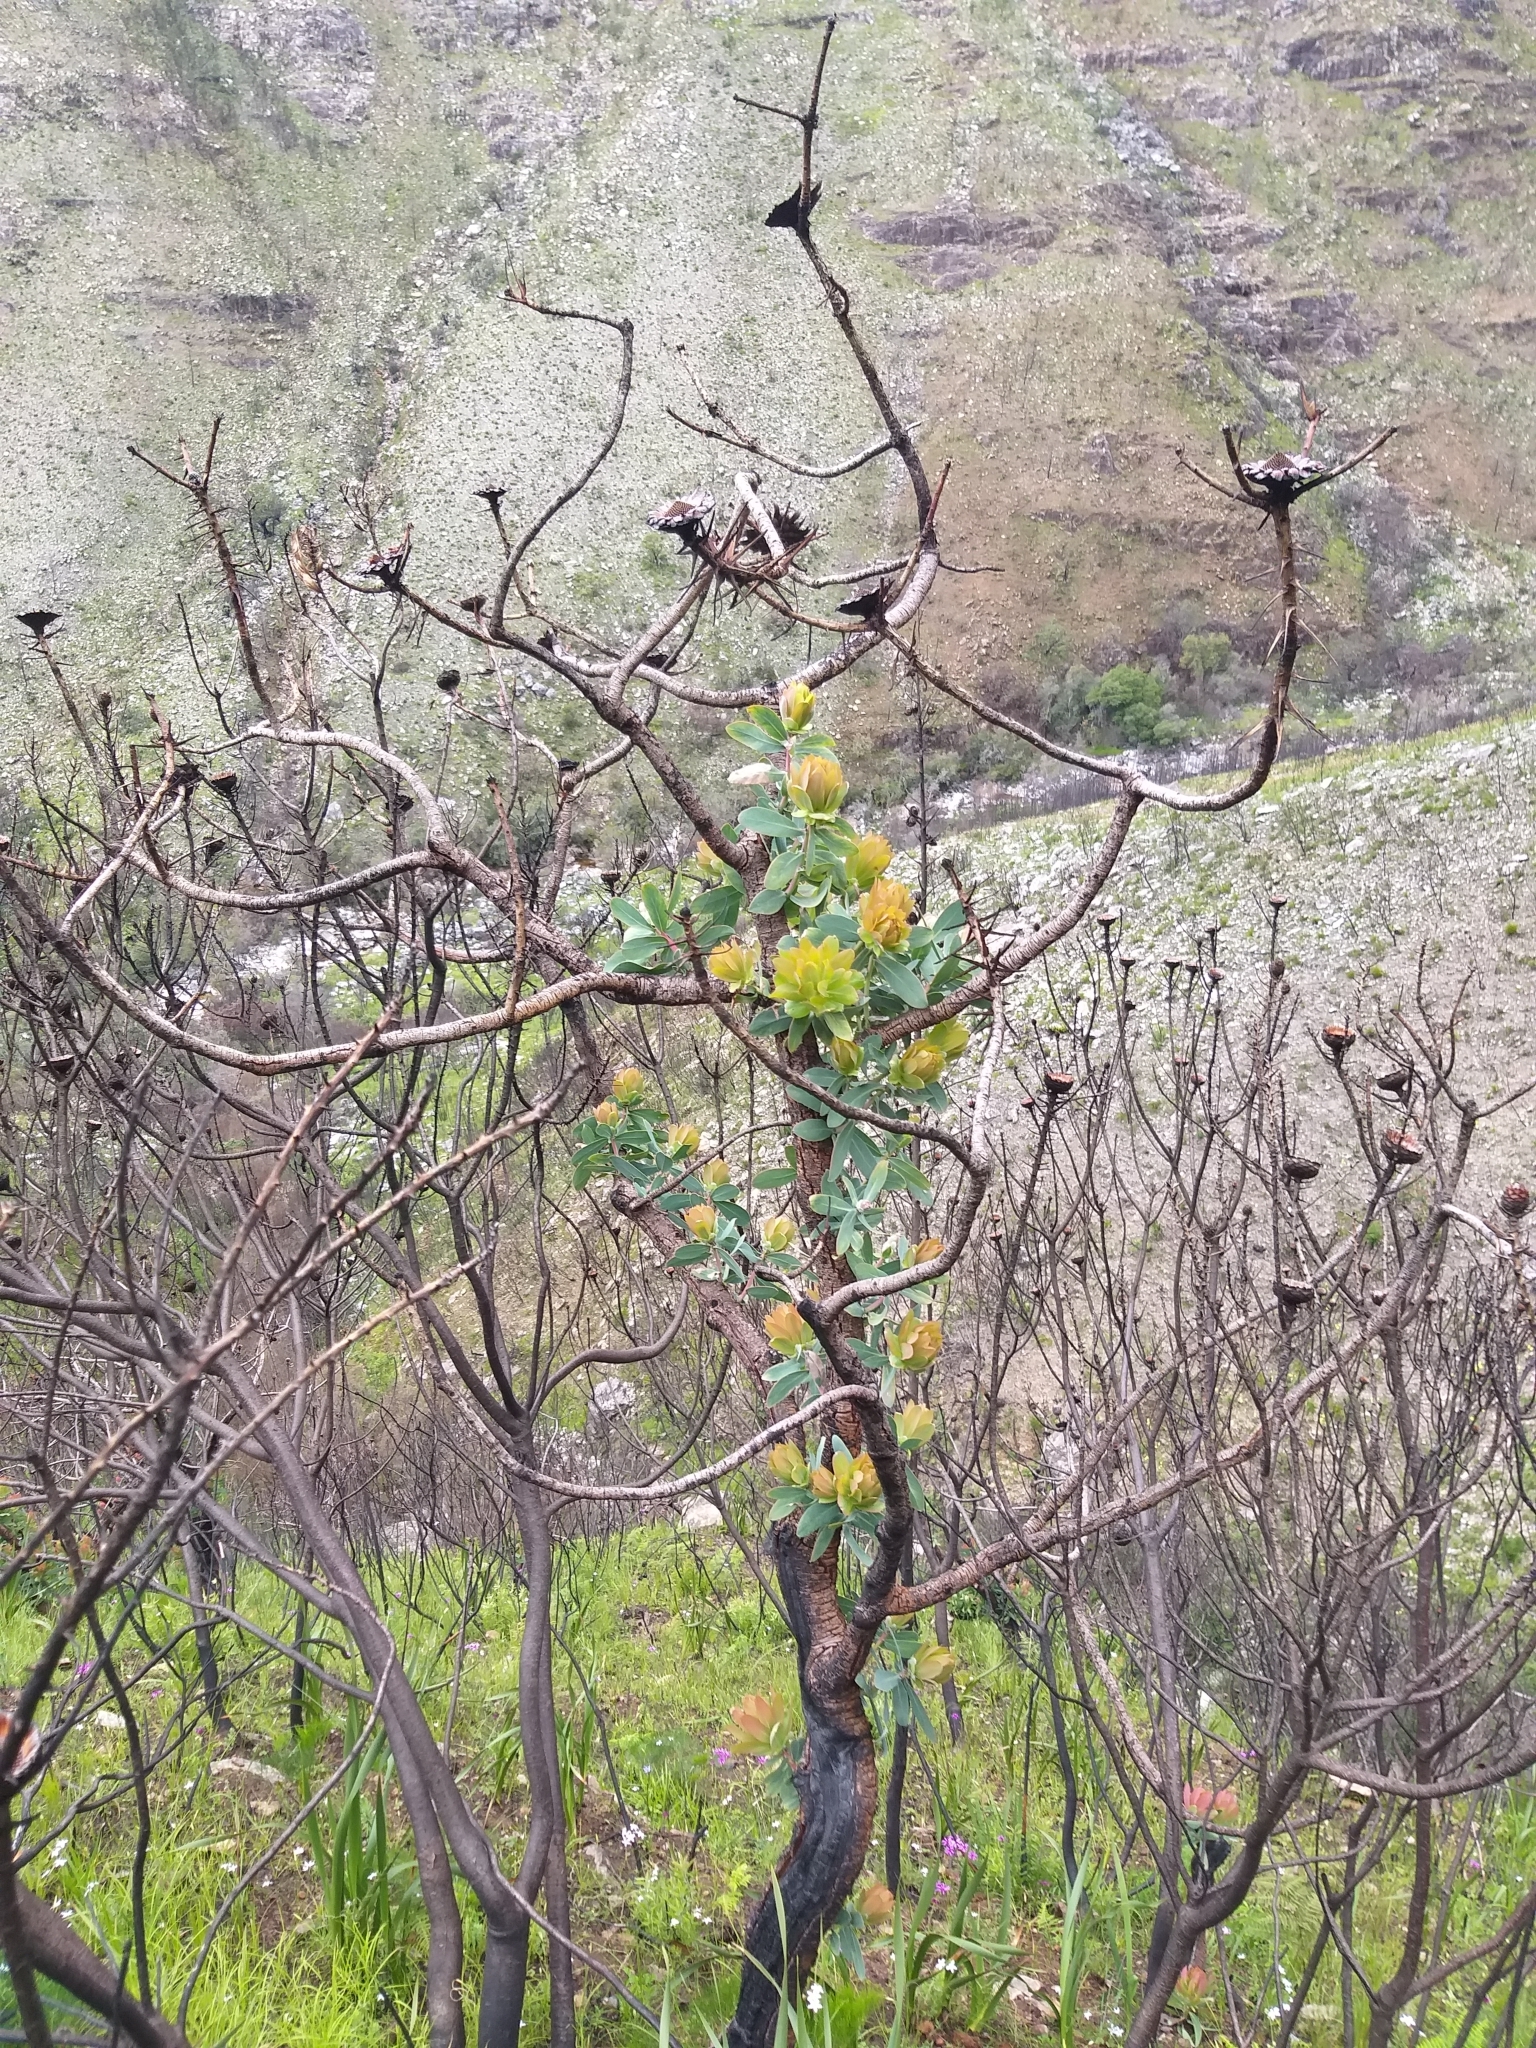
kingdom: Plantae
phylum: Tracheophyta
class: Magnoliopsida
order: Proteales
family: Proteaceae
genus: Protea
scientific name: Protea nitida
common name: Tree protea
